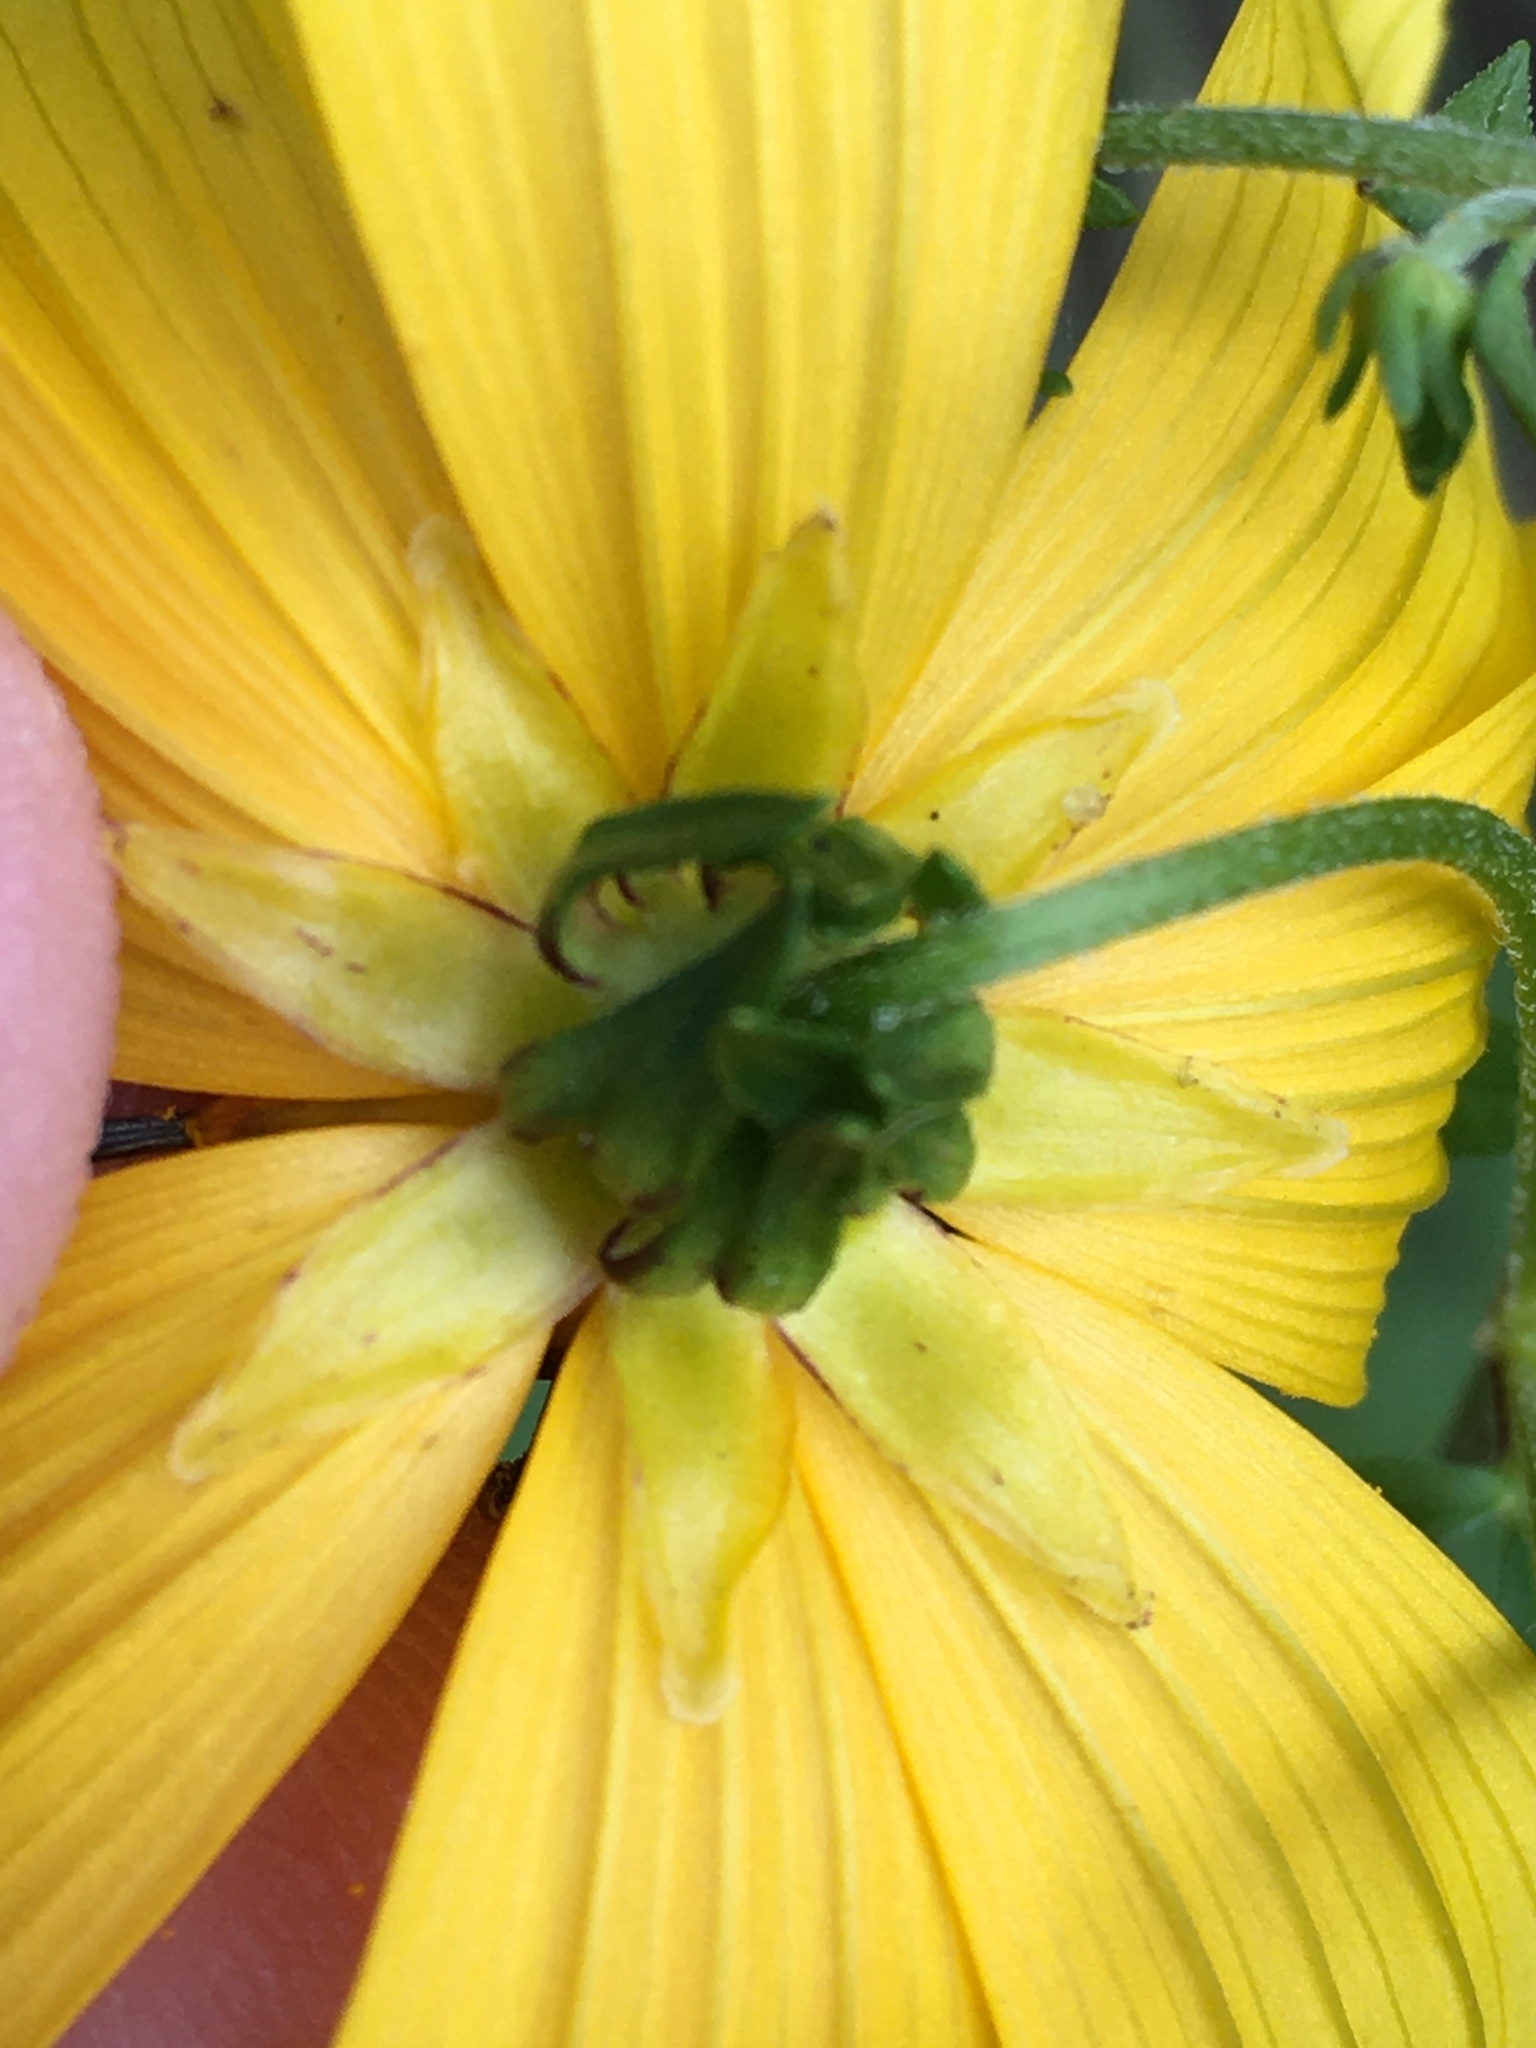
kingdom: Plantae
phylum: Tracheophyta
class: Magnoliopsida
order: Asterales
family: Asteraceae
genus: Bidens
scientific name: Bidens aristosa
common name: Western tickseed
